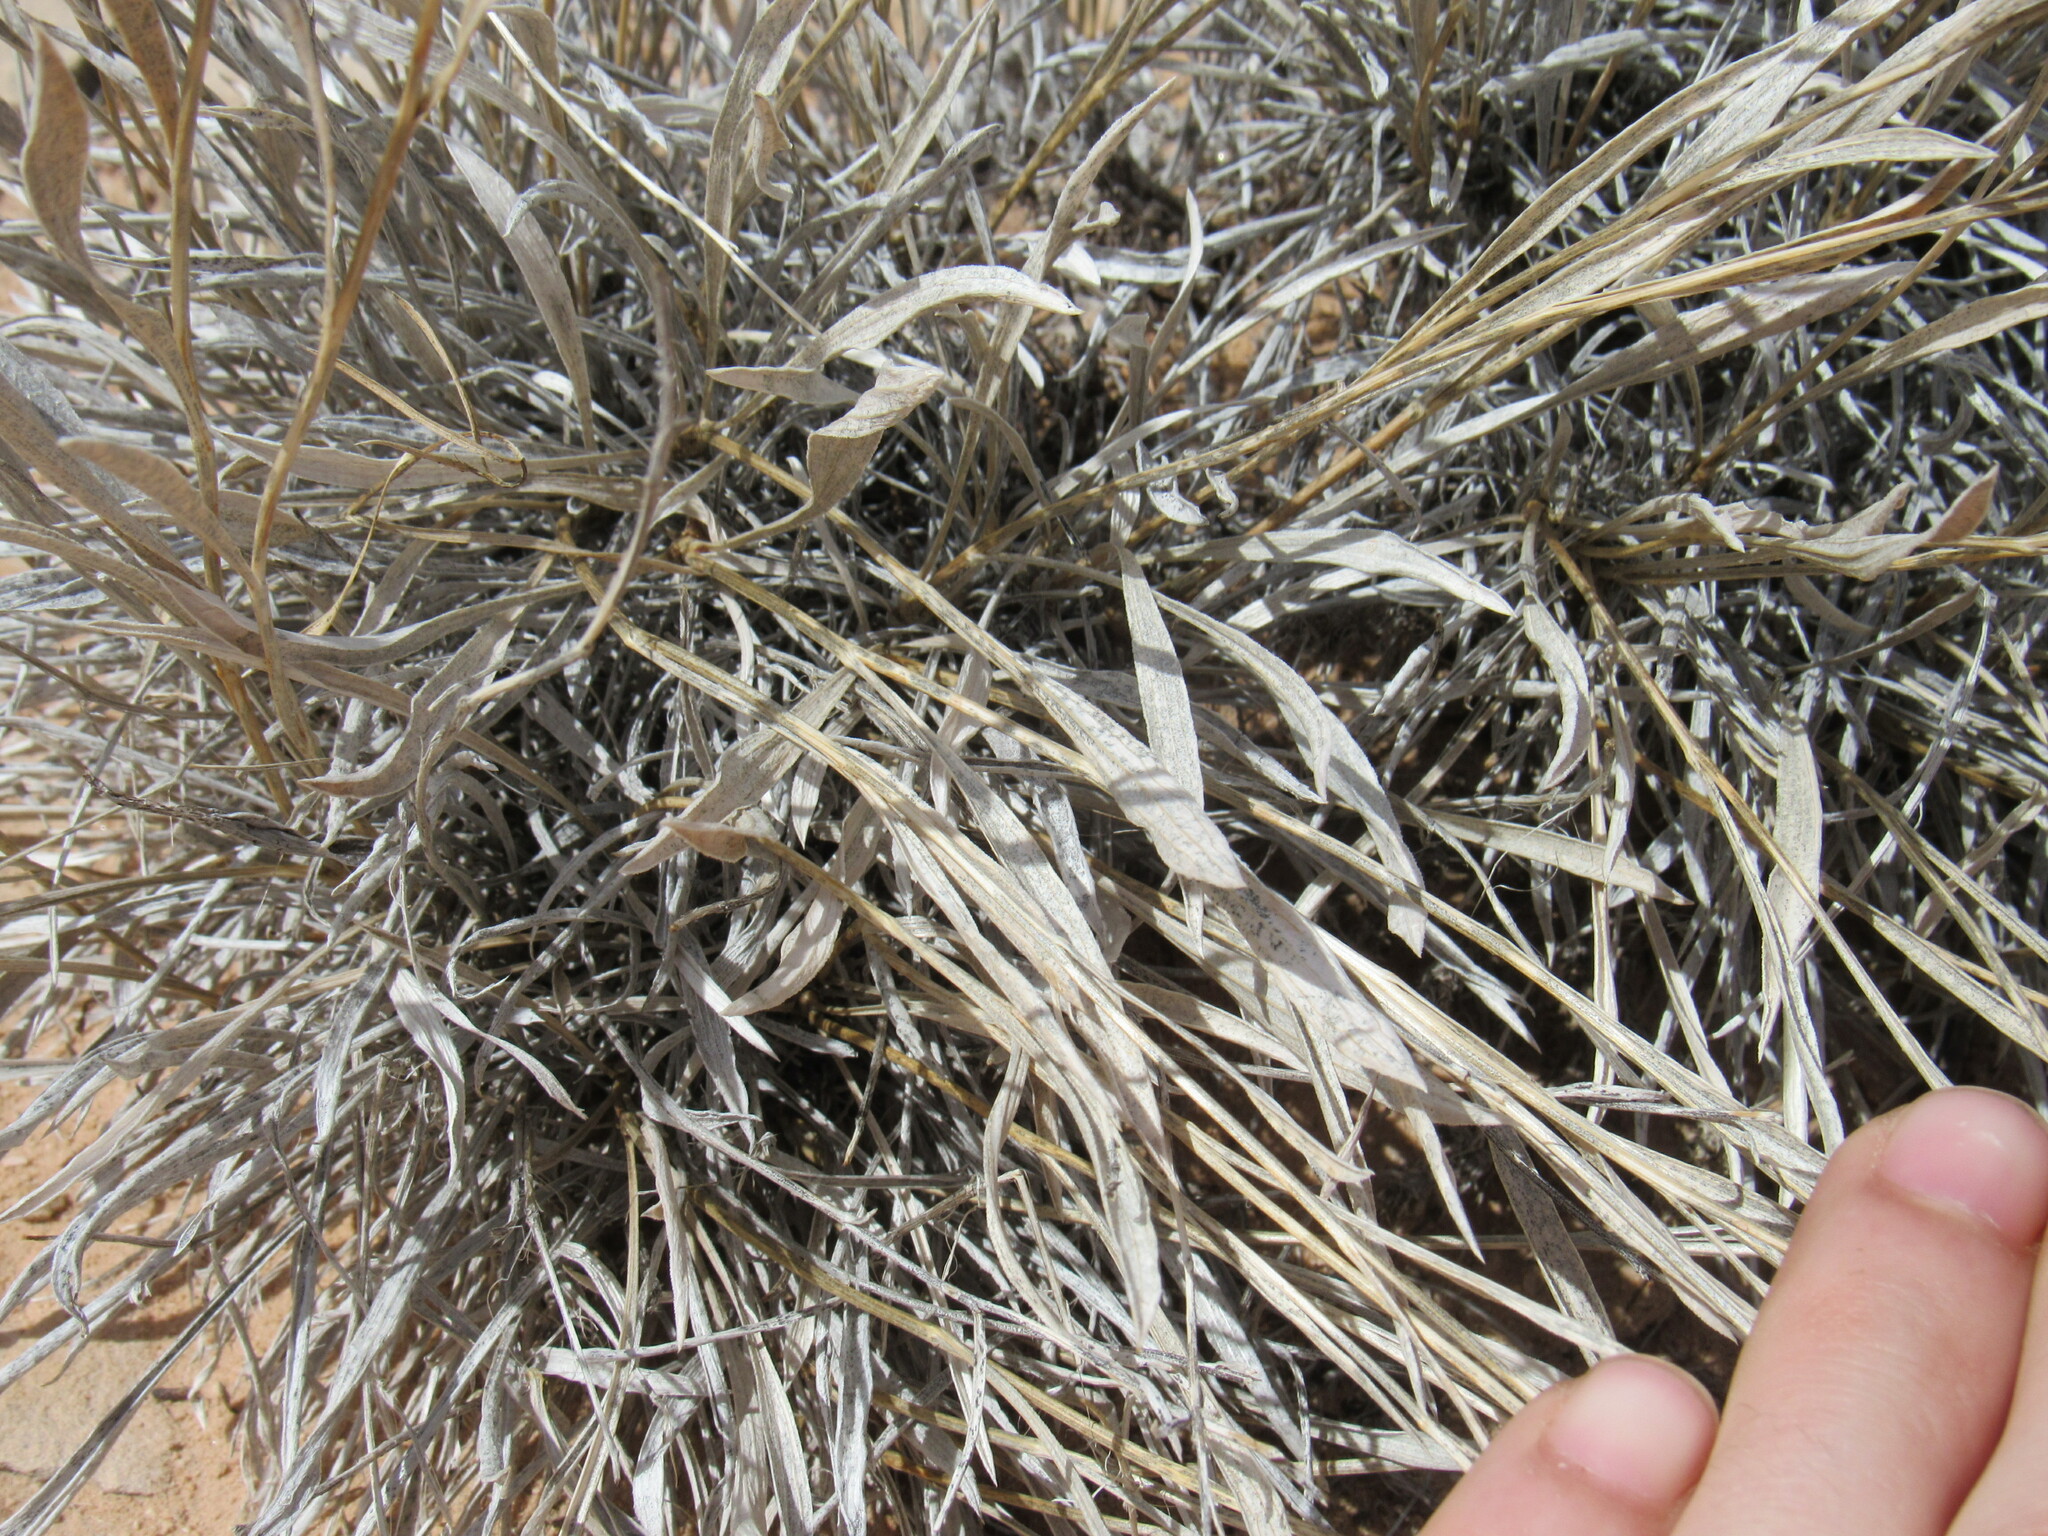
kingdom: Plantae
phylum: Tracheophyta
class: Magnoliopsida
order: Asterales
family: Asteraceae
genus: Petradoria
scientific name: Petradoria pumila
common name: Rock-goldenrod
